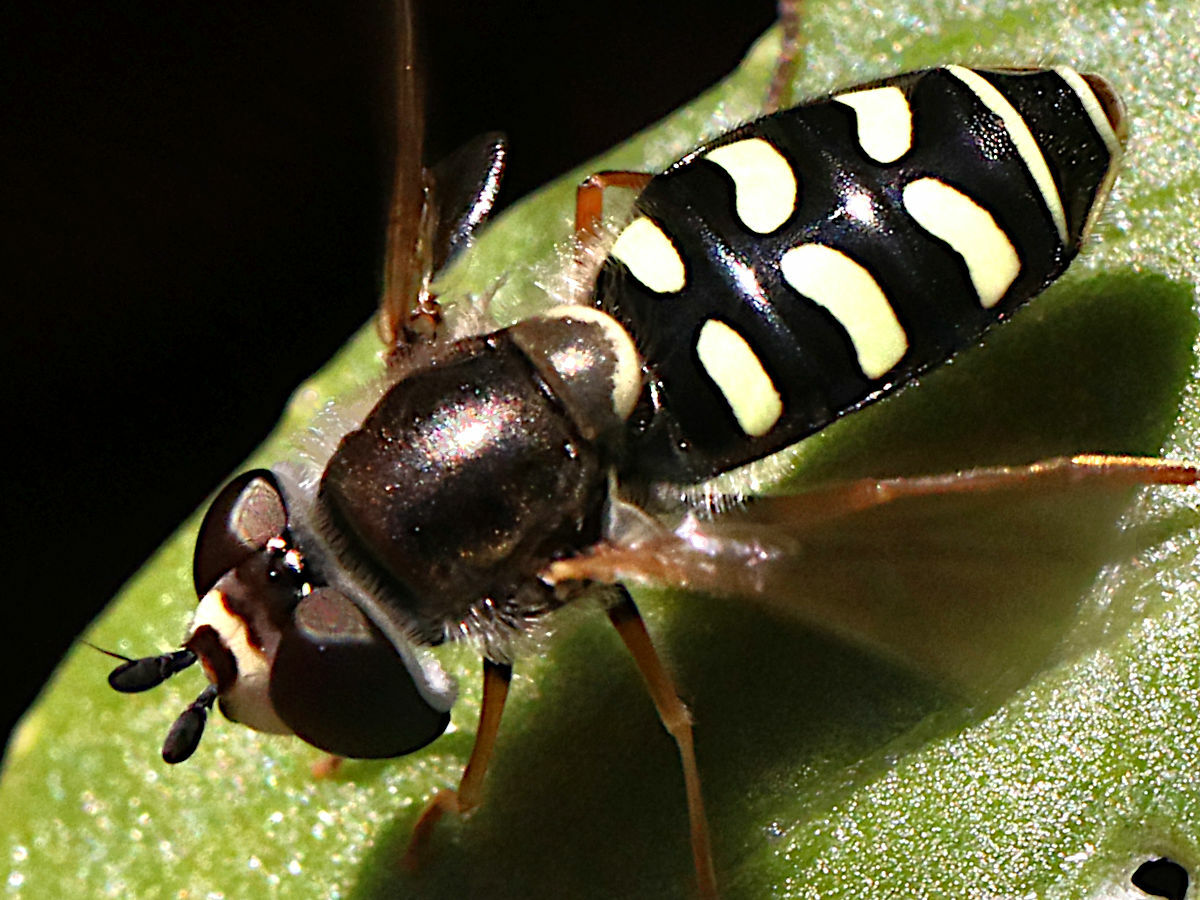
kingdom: Animalia
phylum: Arthropoda
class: Insecta
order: Diptera
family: Syrphidae
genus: Eupeodes
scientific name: Eupeodes volucris
